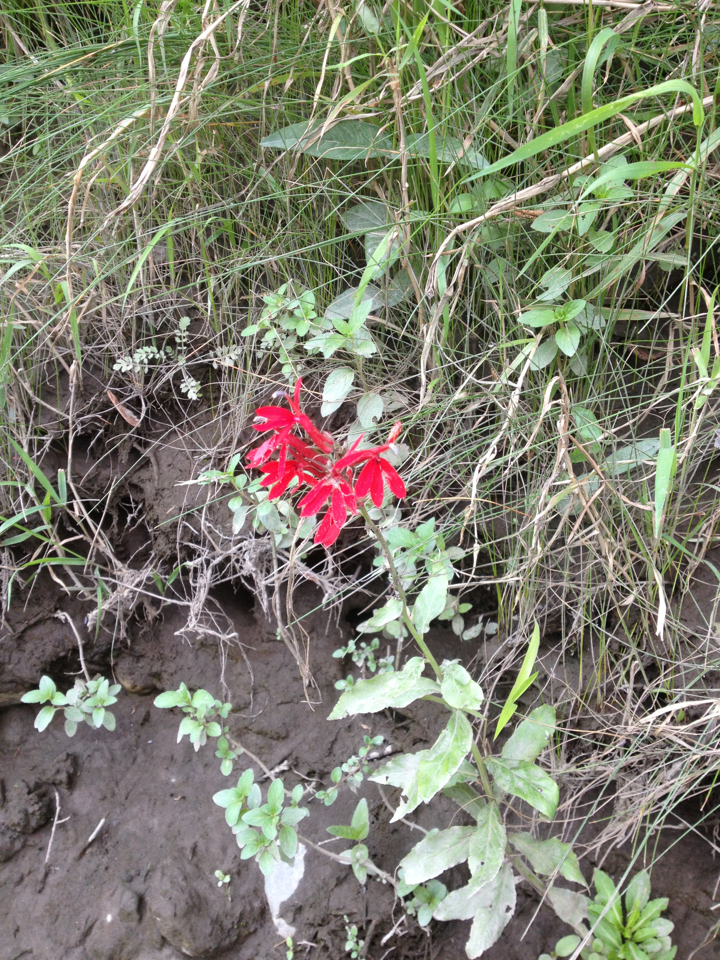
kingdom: Plantae
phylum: Tracheophyta
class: Magnoliopsida
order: Asterales
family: Campanulaceae
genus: Lobelia
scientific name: Lobelia cardinalis
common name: Cardinal flower
